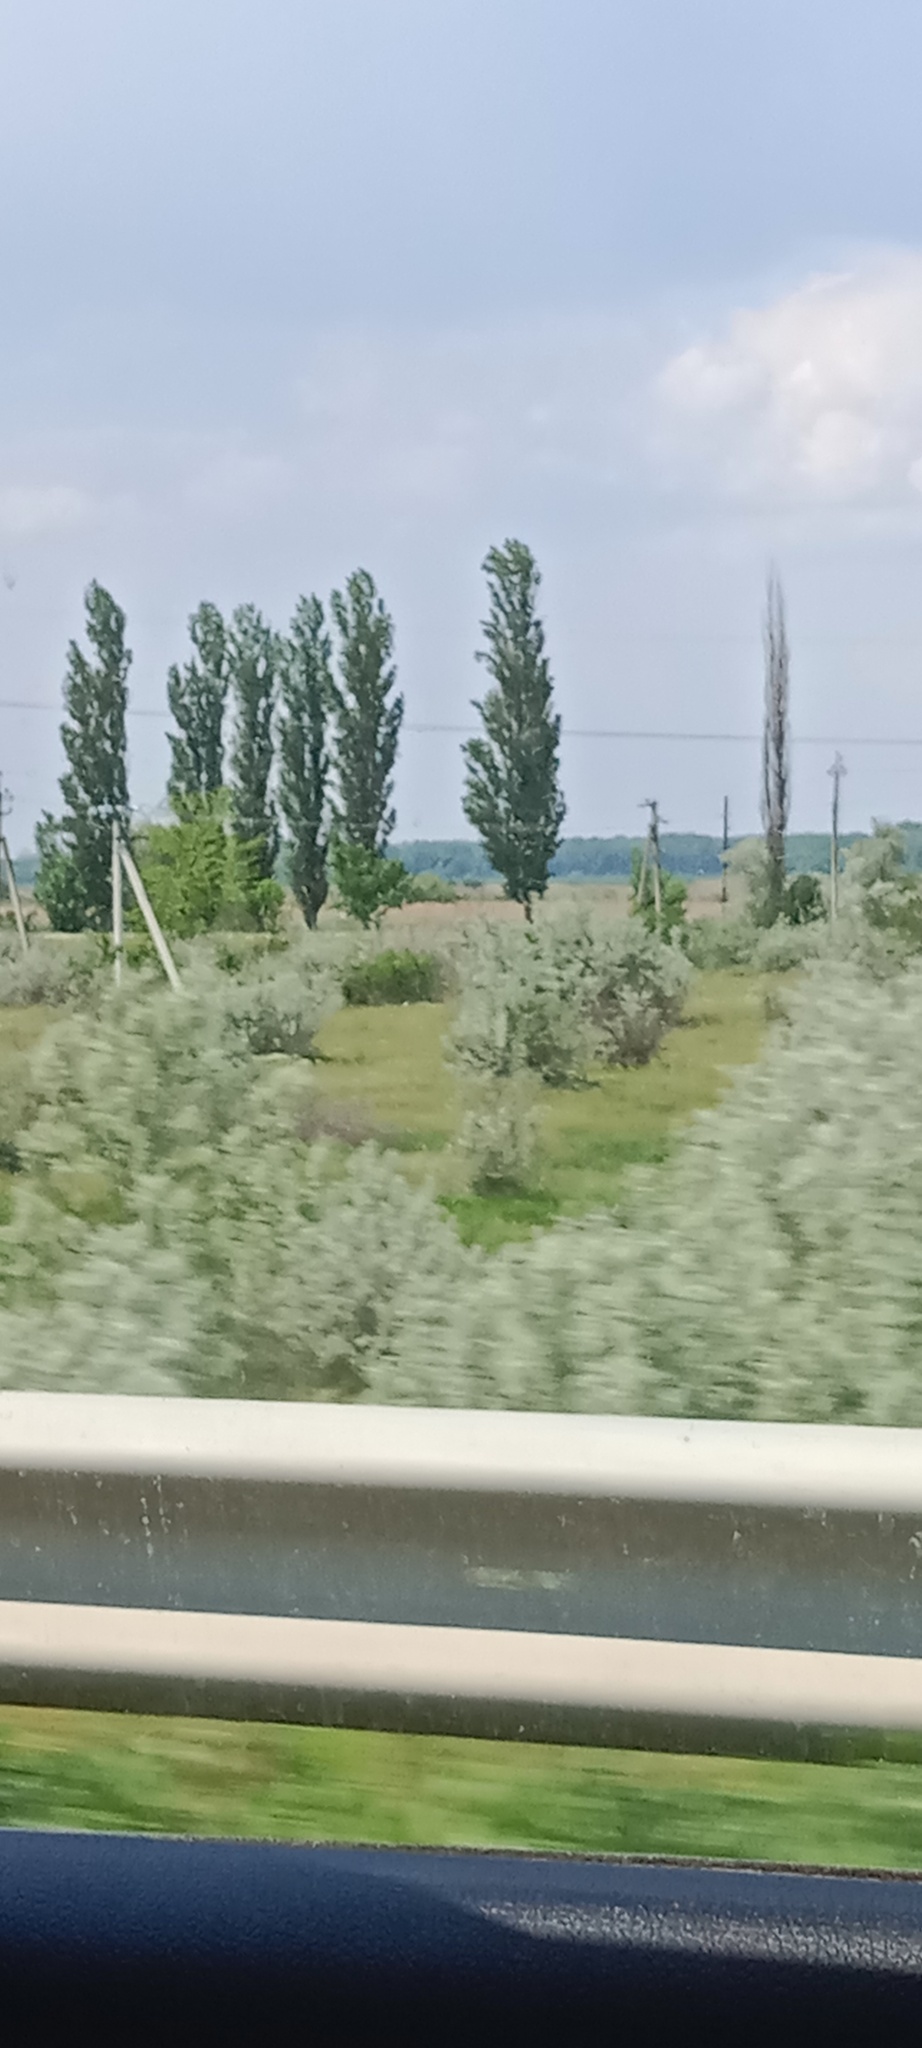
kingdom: Plantae
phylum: Tracheophyta
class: Magnoliopsida
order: Rosales
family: Elaeagnaceae
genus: Elaeagnus
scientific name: Elaeagnus angustifolia
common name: Russian olive
